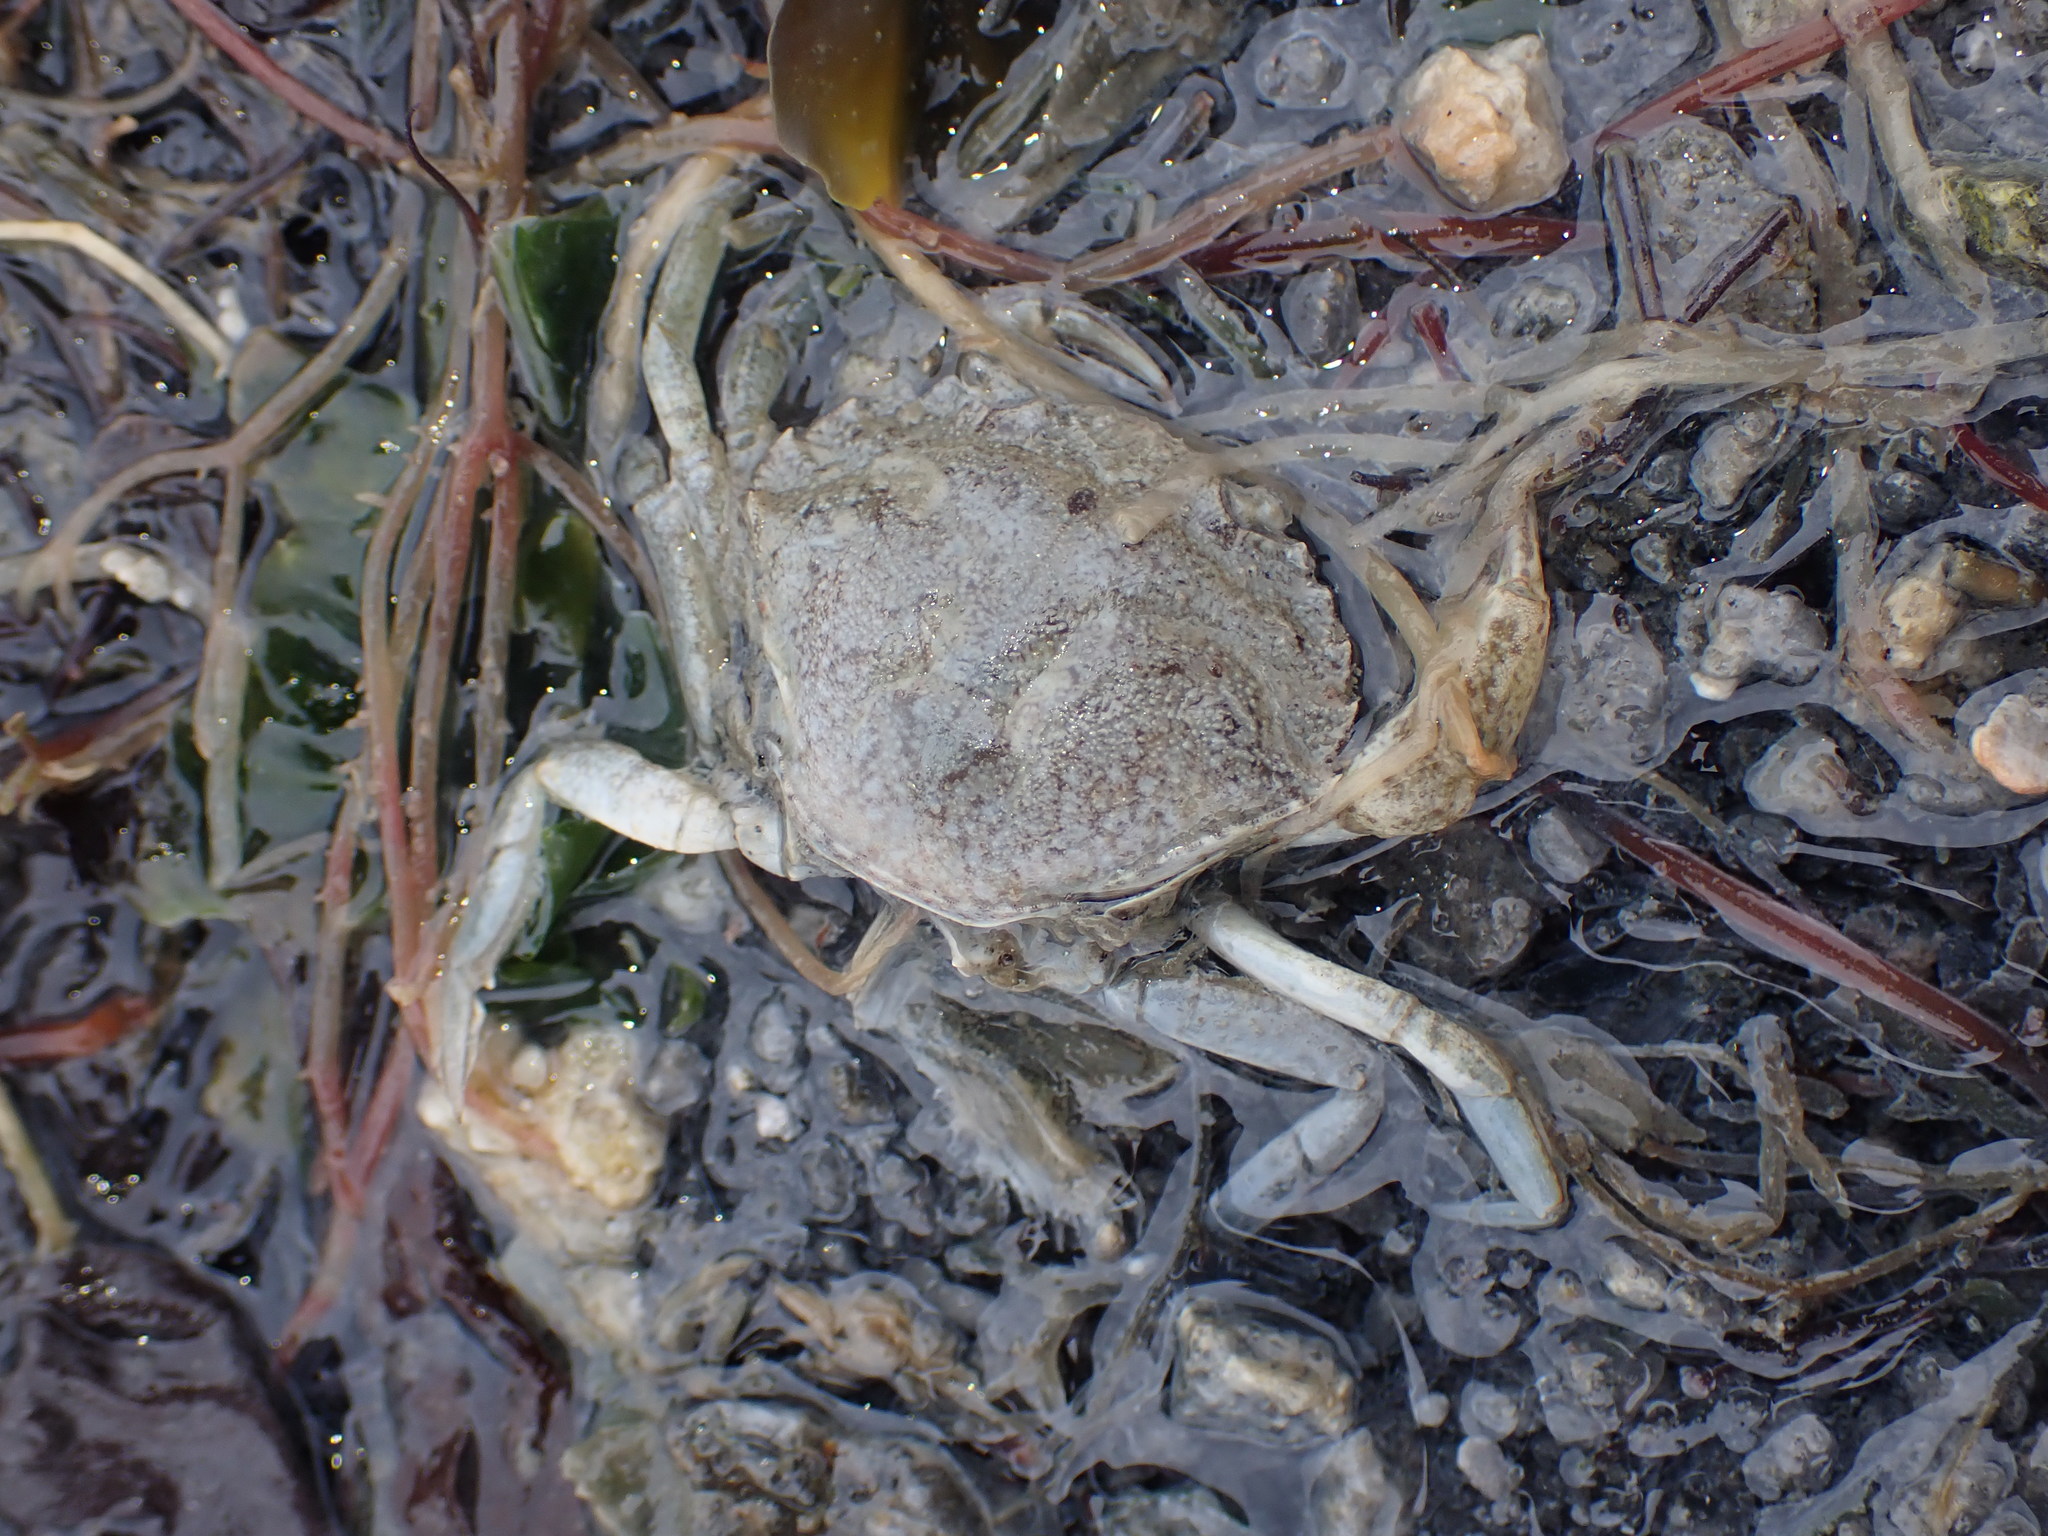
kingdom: Animalia
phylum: Arthropoda
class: Malacostraca
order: Decapoda
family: Carcinidae
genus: Carcinus
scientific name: Carcinus maenas
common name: European green crab
